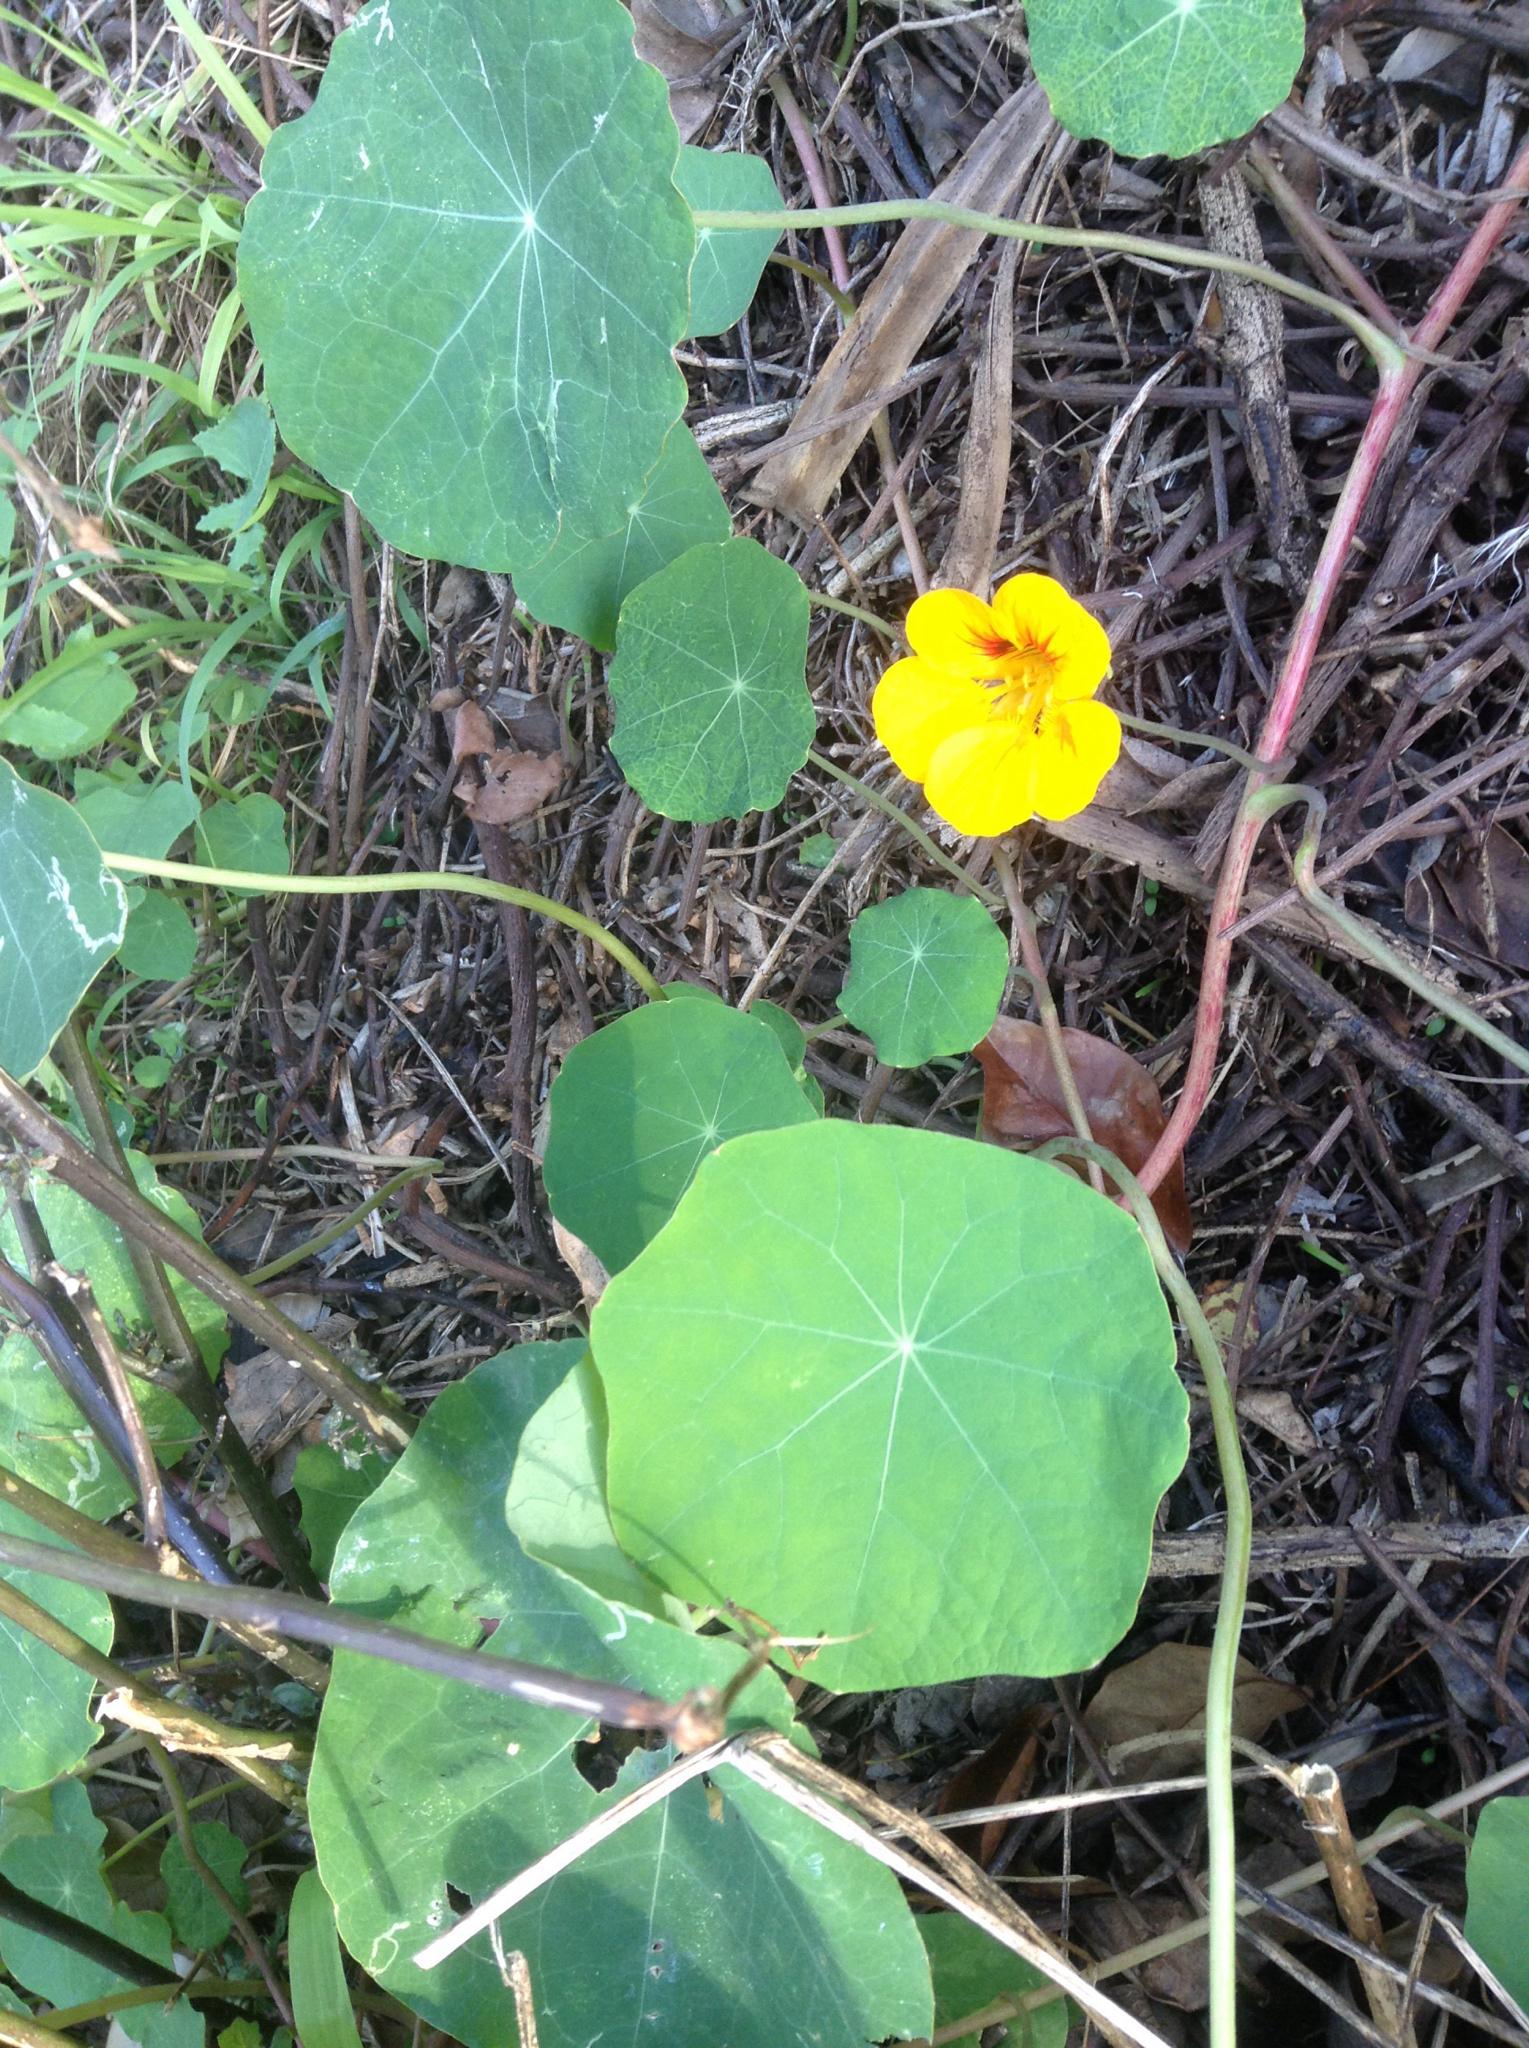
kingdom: Plantae
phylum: Tracheophyta
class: Magnoliopsida
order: Brassicales
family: Tropaeolaceae
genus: Tropaeolum
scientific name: Tropaeolum majus
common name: Nasturtium
